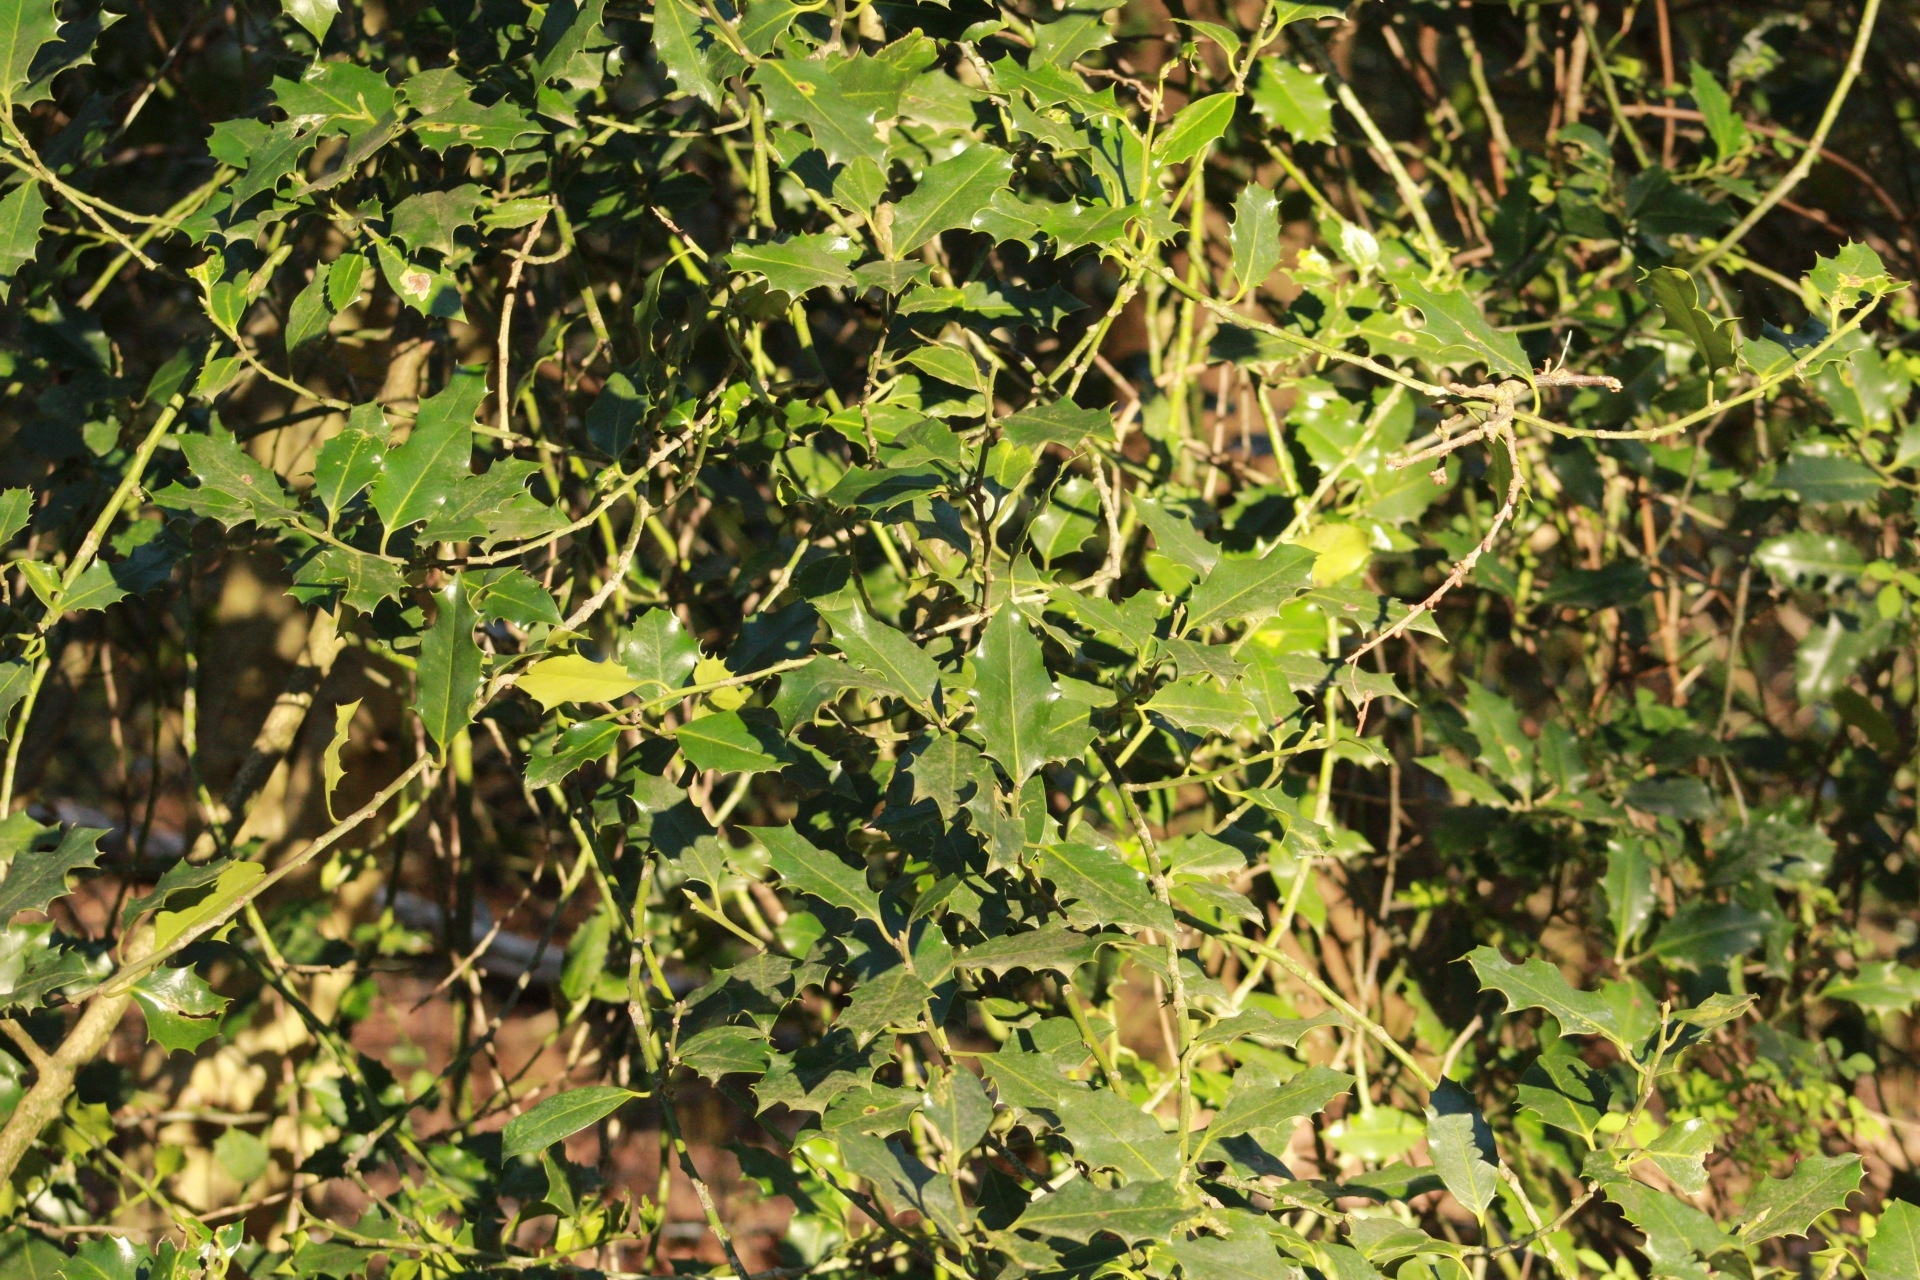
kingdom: Plantae
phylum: Tracheophyta
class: Magnoliopsida
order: Aquifoliales
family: Aquifoliaceae
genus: Ilex
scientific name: Ilex aquifolium
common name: English holly
